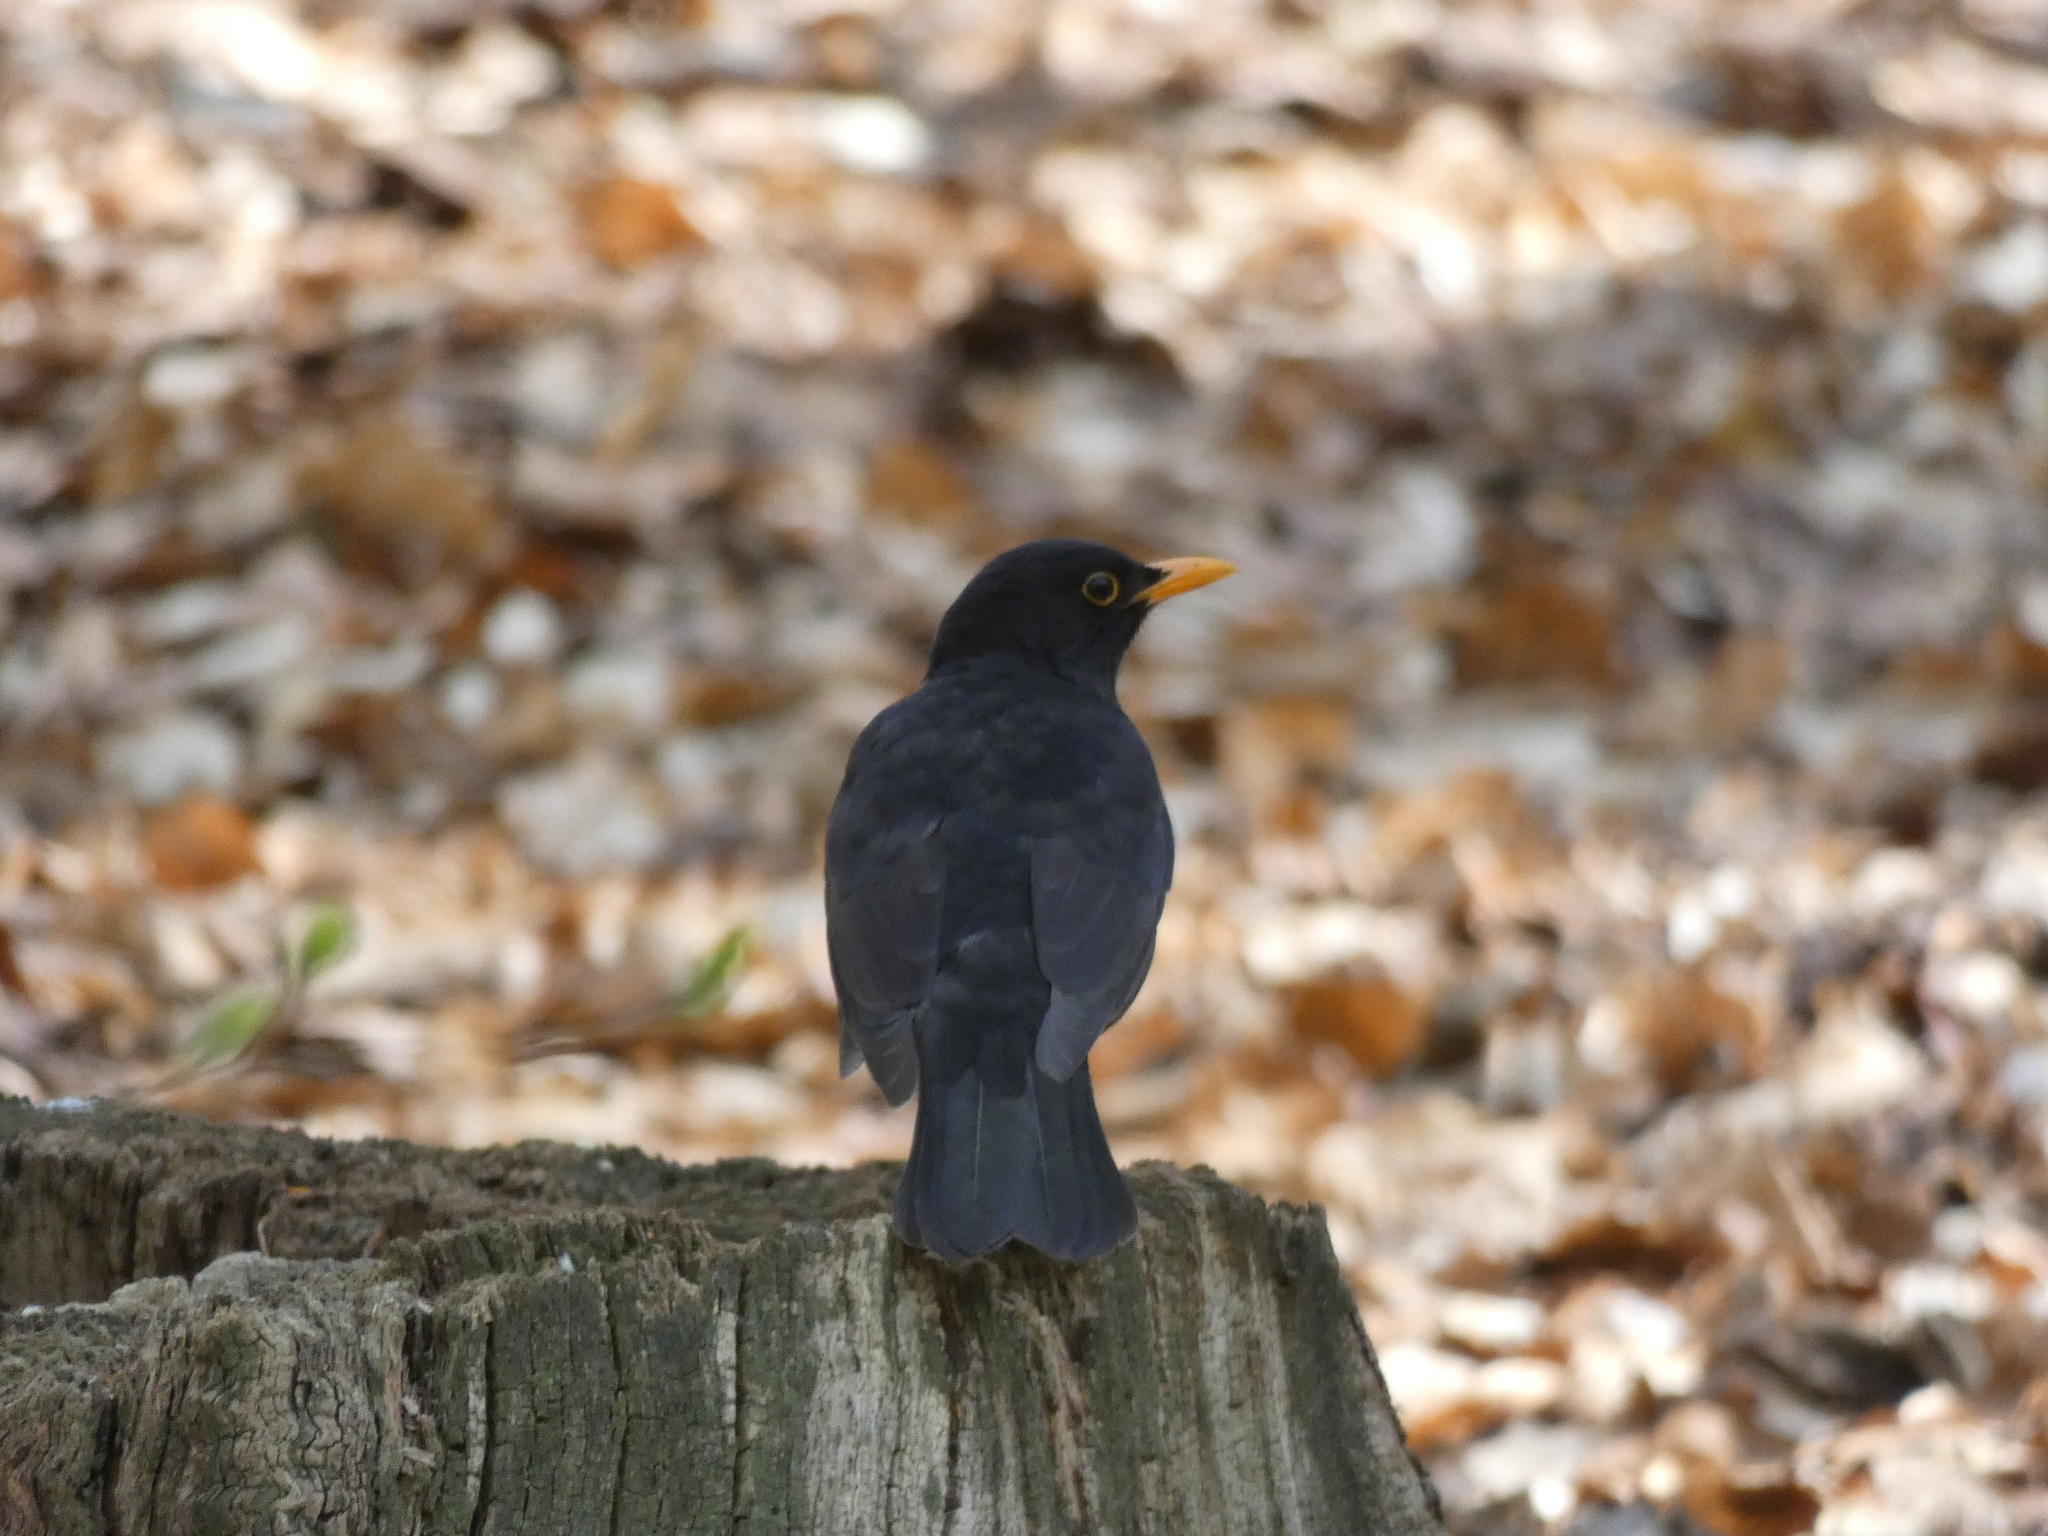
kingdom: Animalia
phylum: Chordata
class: Aves
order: Passeriformes
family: Turdidae
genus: Turdus
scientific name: Turdus merula
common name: Common blackbird
